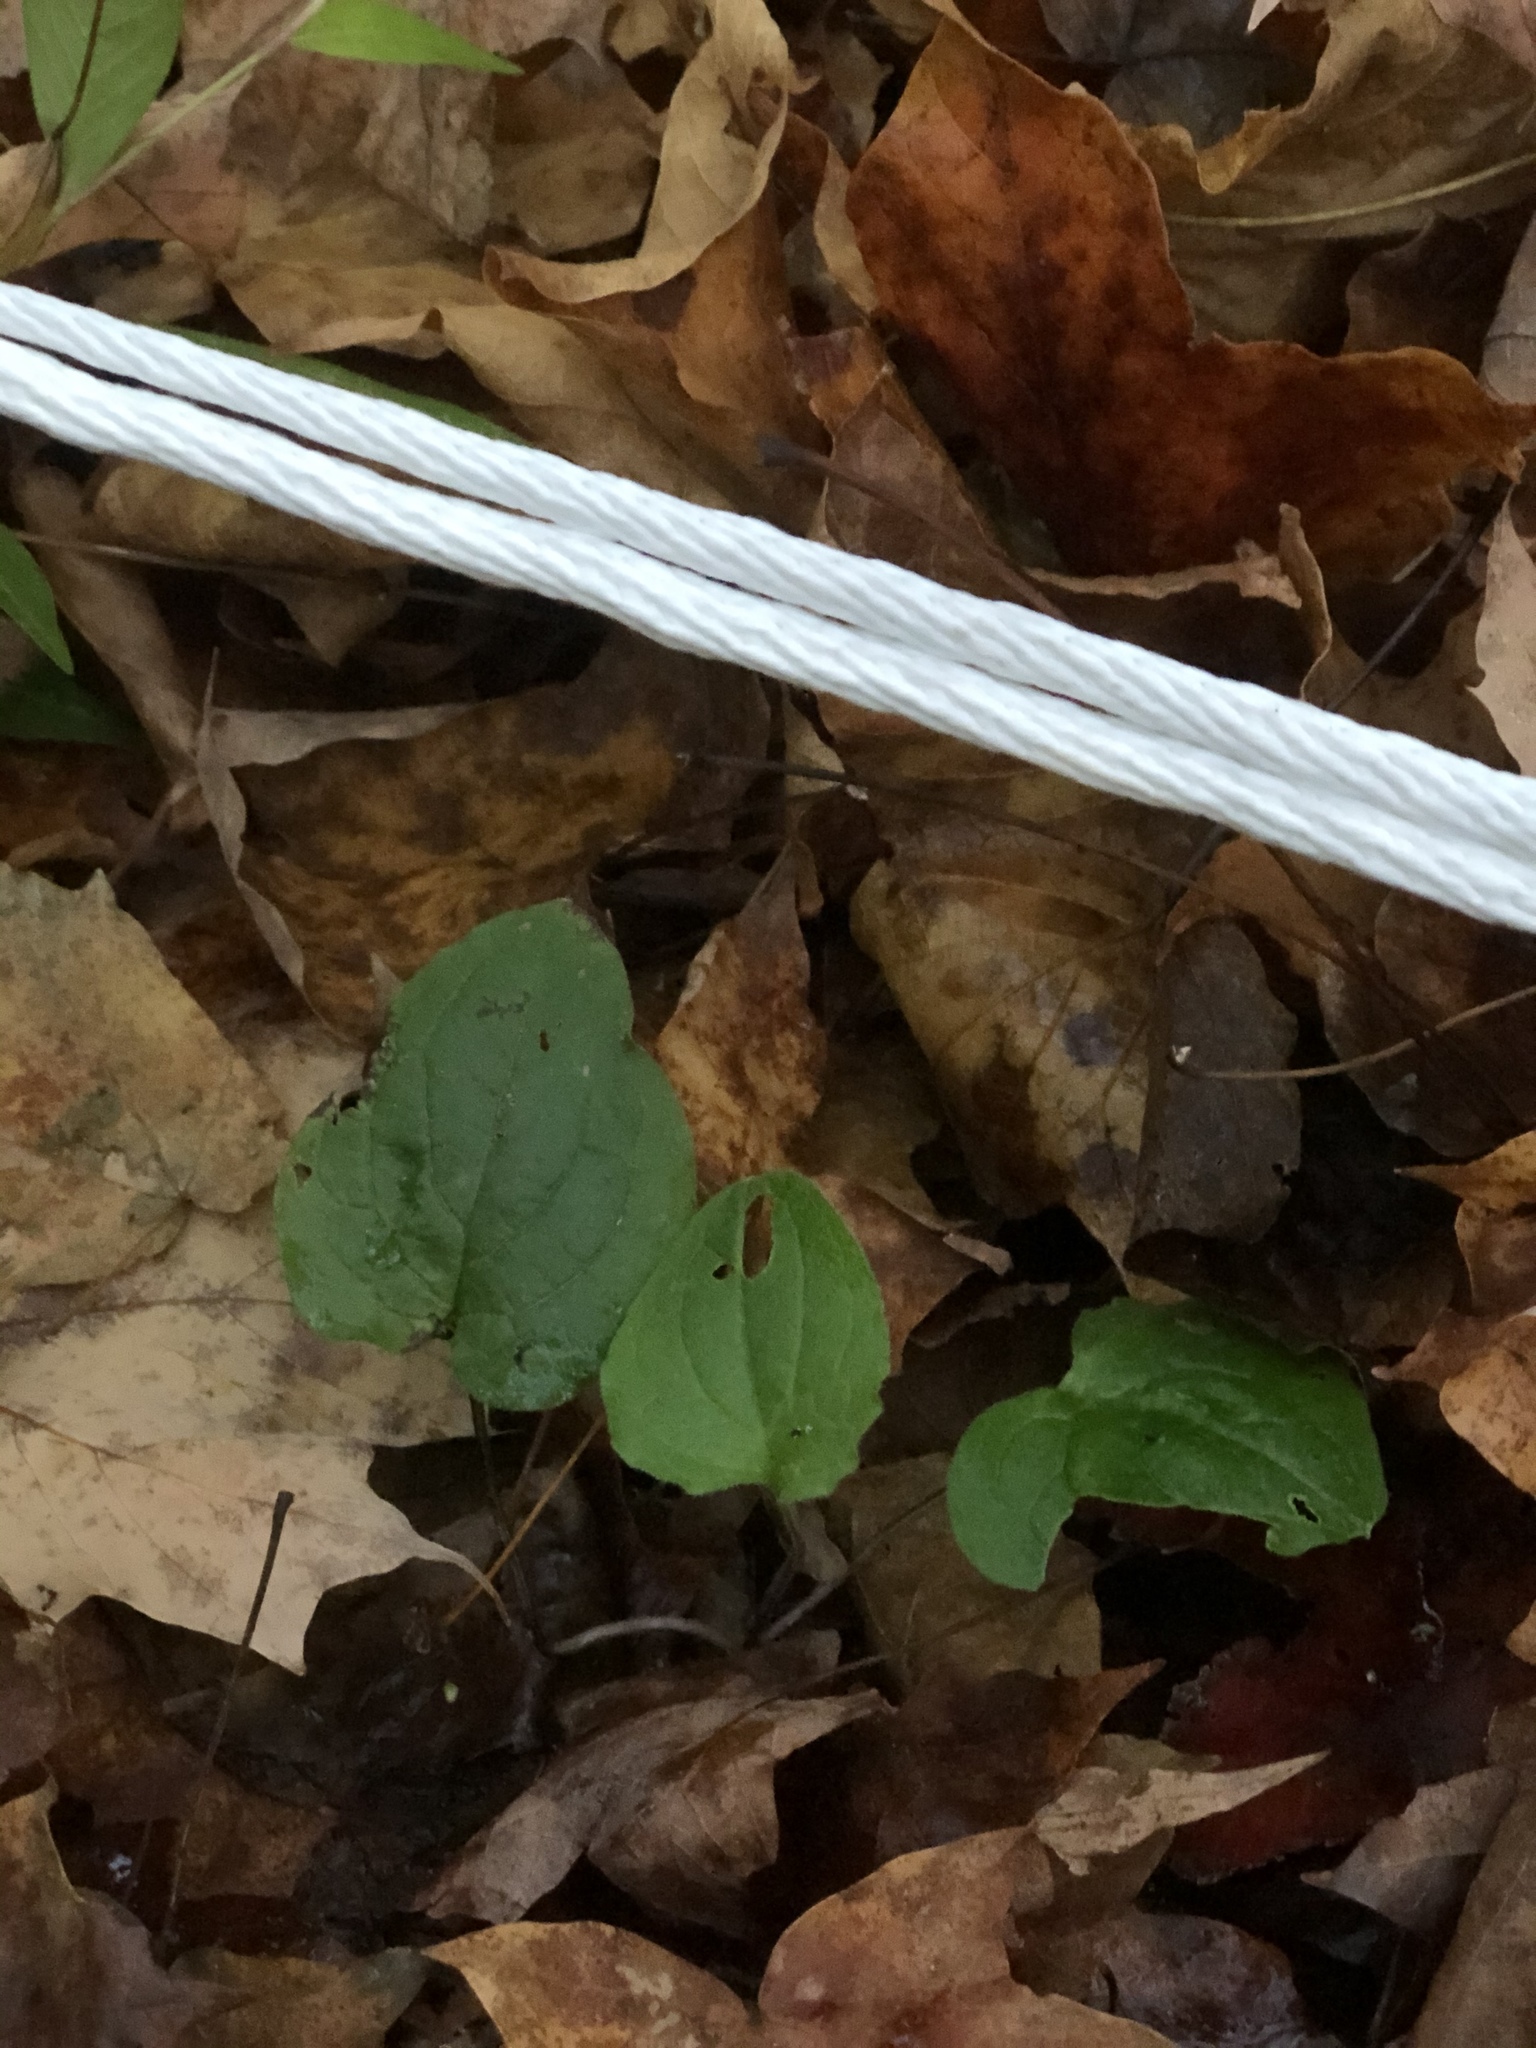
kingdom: Plantae
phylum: Tracheophyta
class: Liliopsida
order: Liliales
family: Smilacaceae
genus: Smilax
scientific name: Smilax rotundifolia
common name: Bullbriar
